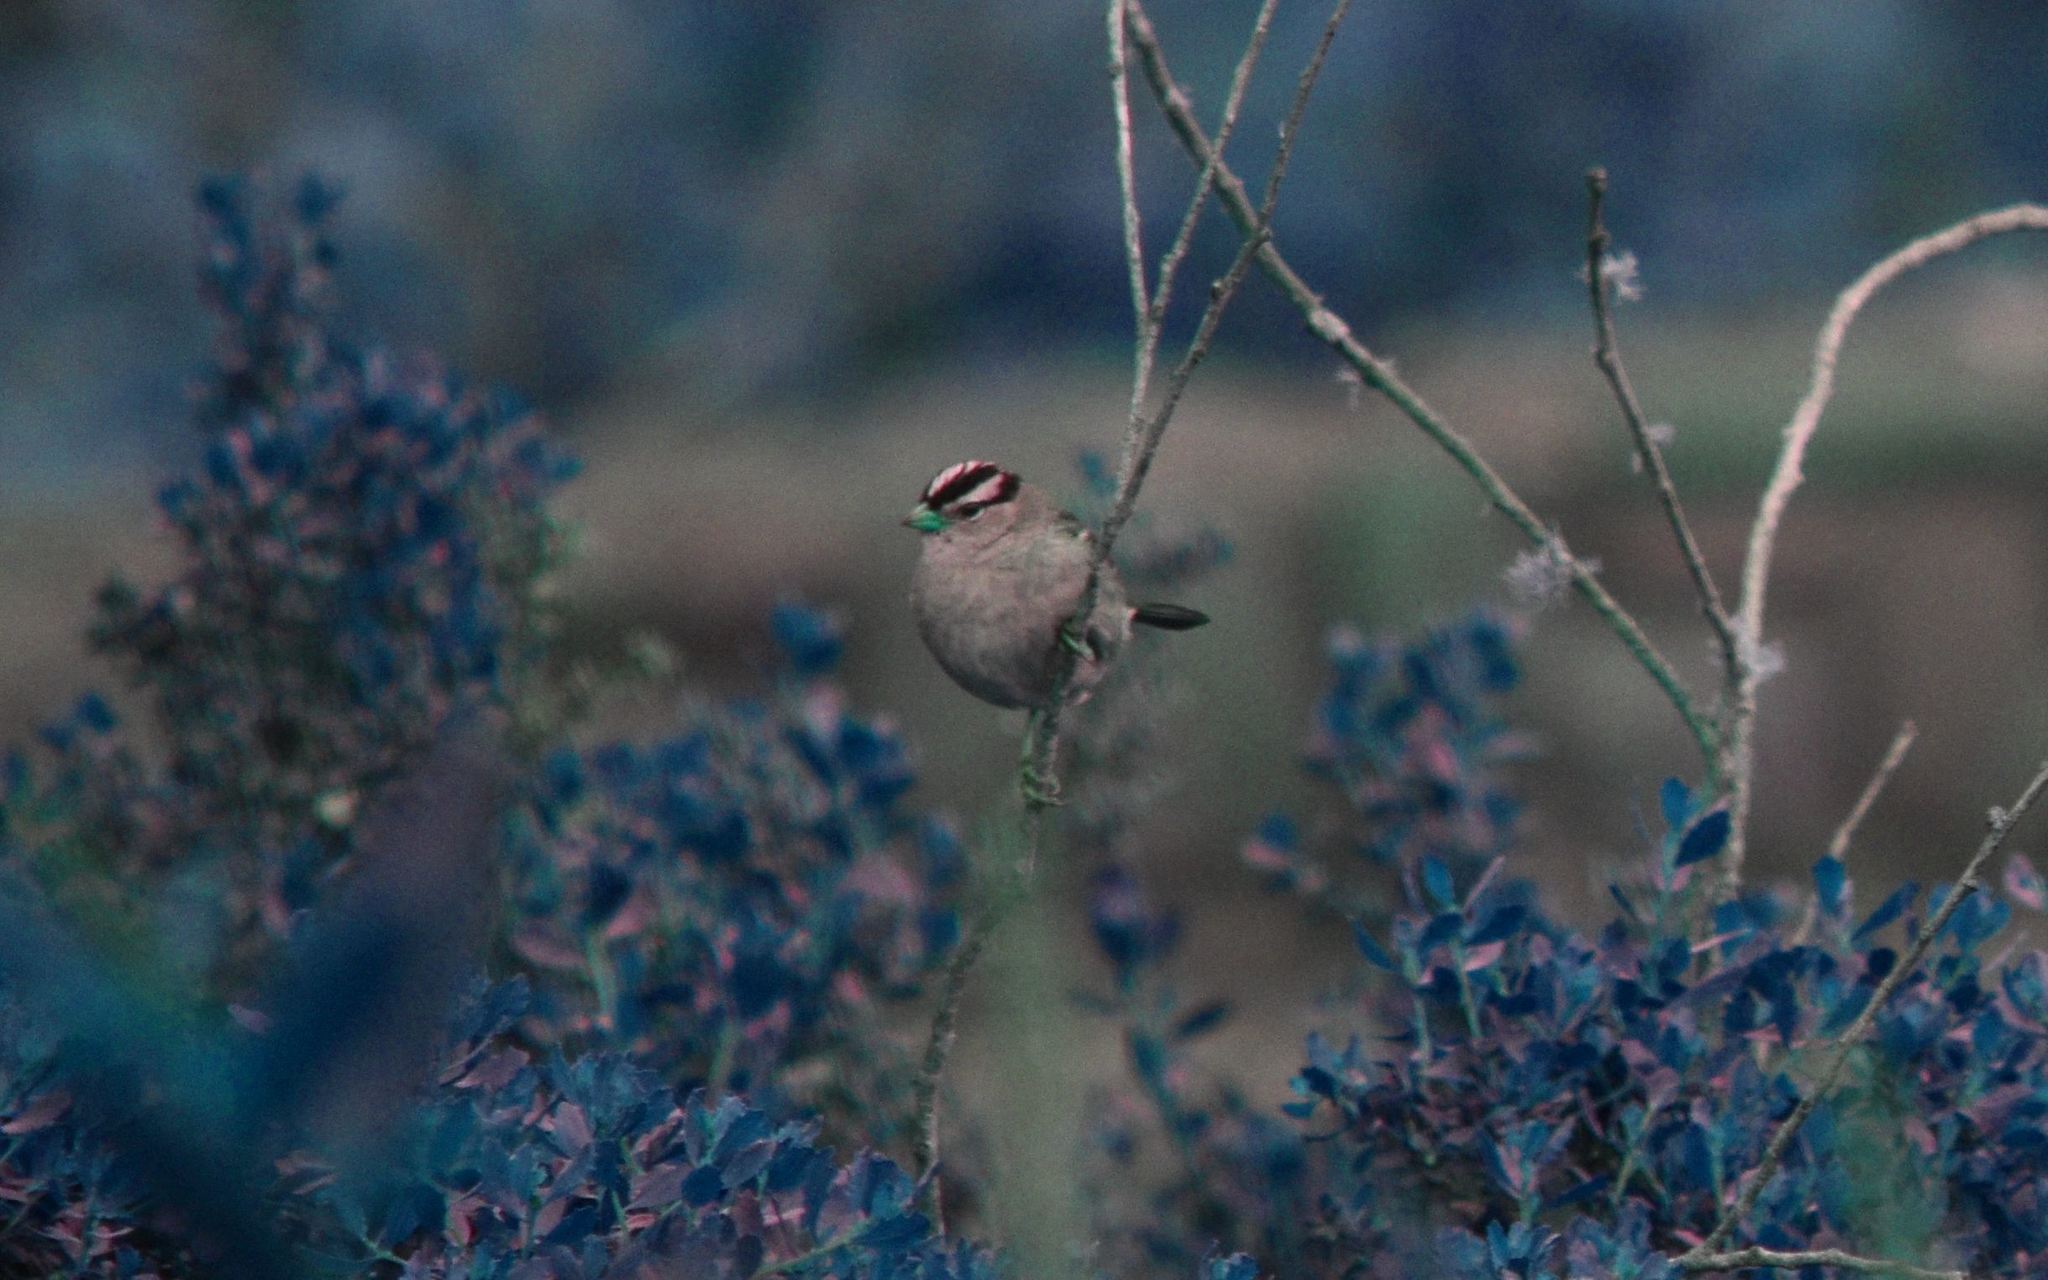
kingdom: Animalia
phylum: Chordata
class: Aves
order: Passeriformes
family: Passerellidae
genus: Zonotrichia
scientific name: Zonotrichia leucophrys
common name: White-crowned sparrow
